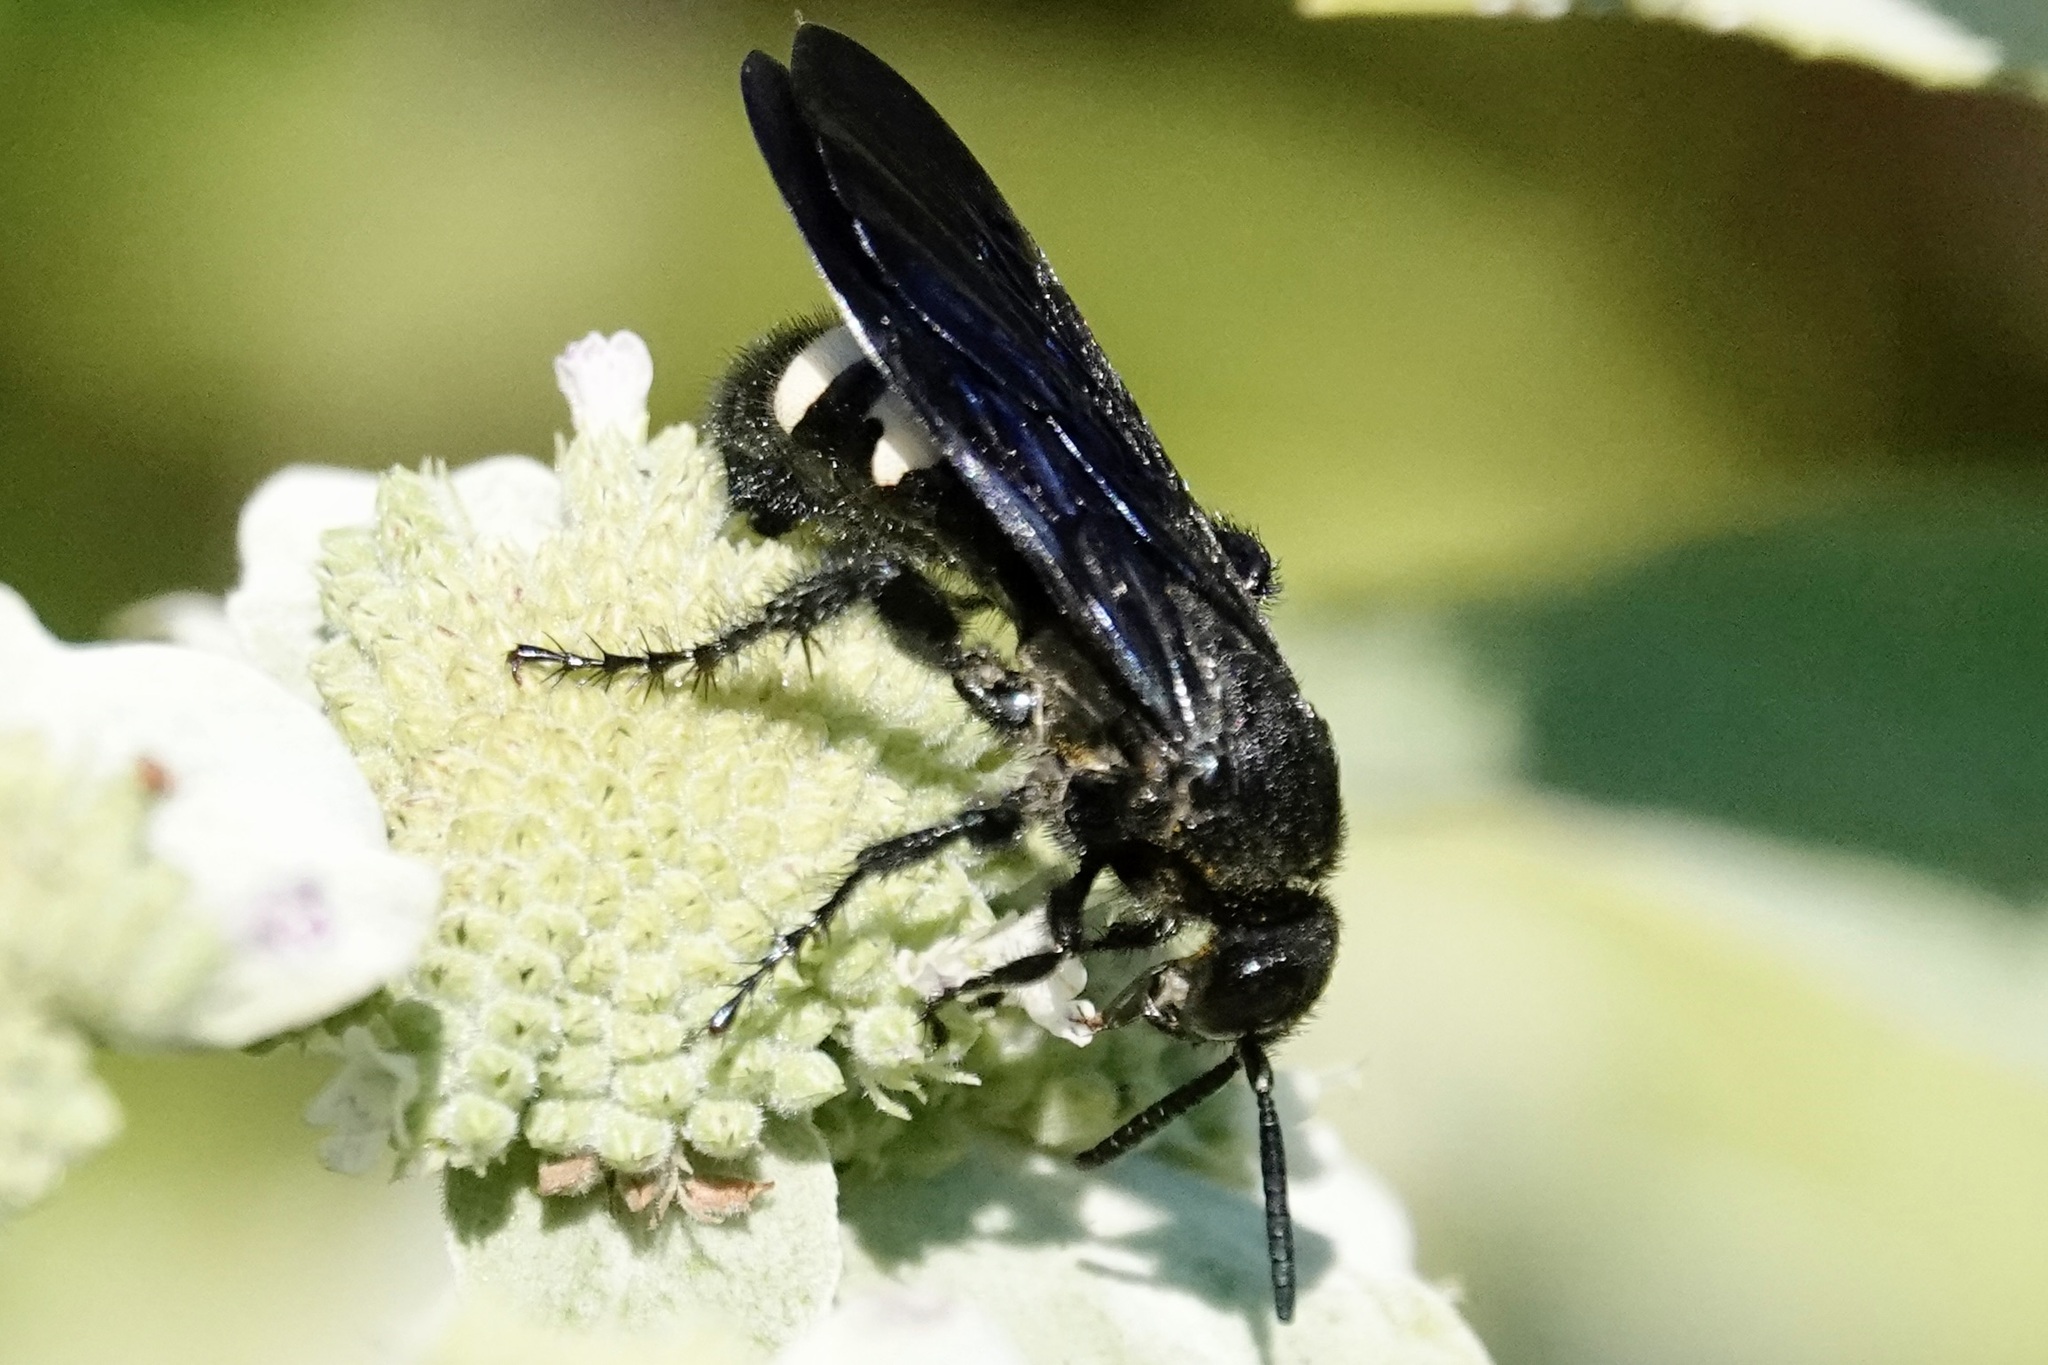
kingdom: Animalia
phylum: Arthropoda
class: Insecta
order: Hymenoptera
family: Scoliidae
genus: Scolia
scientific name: Scolia bicincta
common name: Double-banded scoliid wasp
